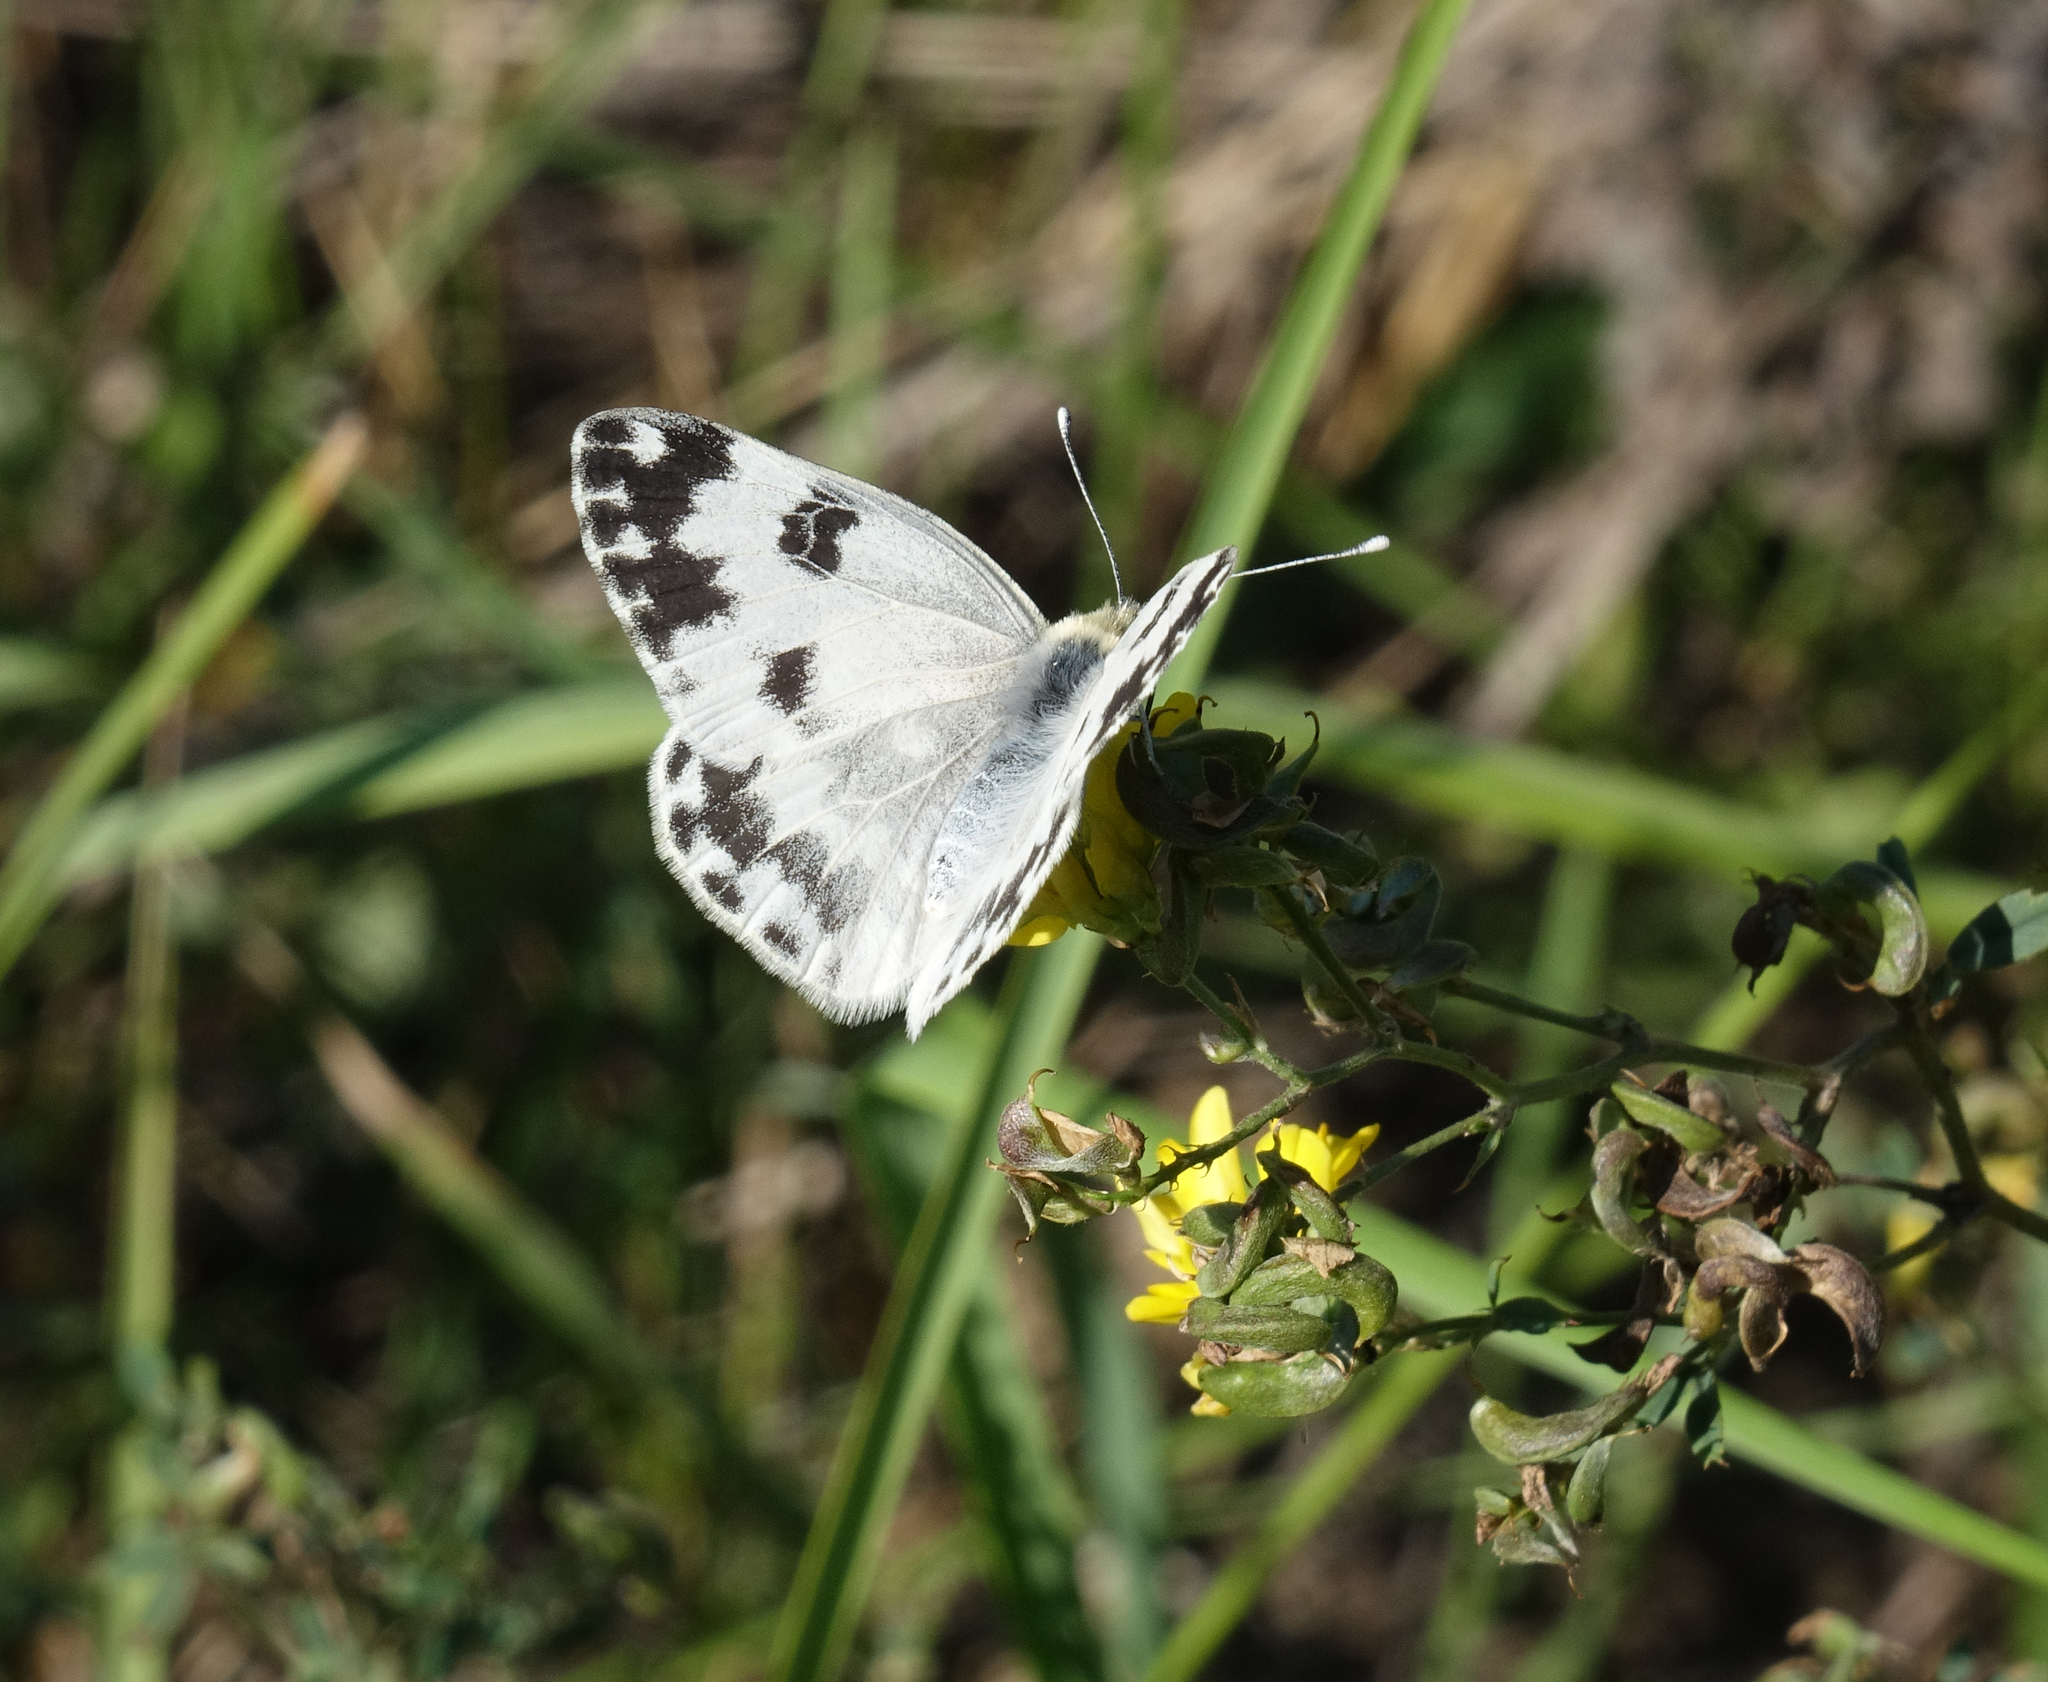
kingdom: Animalia
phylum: Arthropoda
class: Insecta
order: Lepidoptera
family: Pieridae
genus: Pontia
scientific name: Pontia edusa
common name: Eastern bath white
